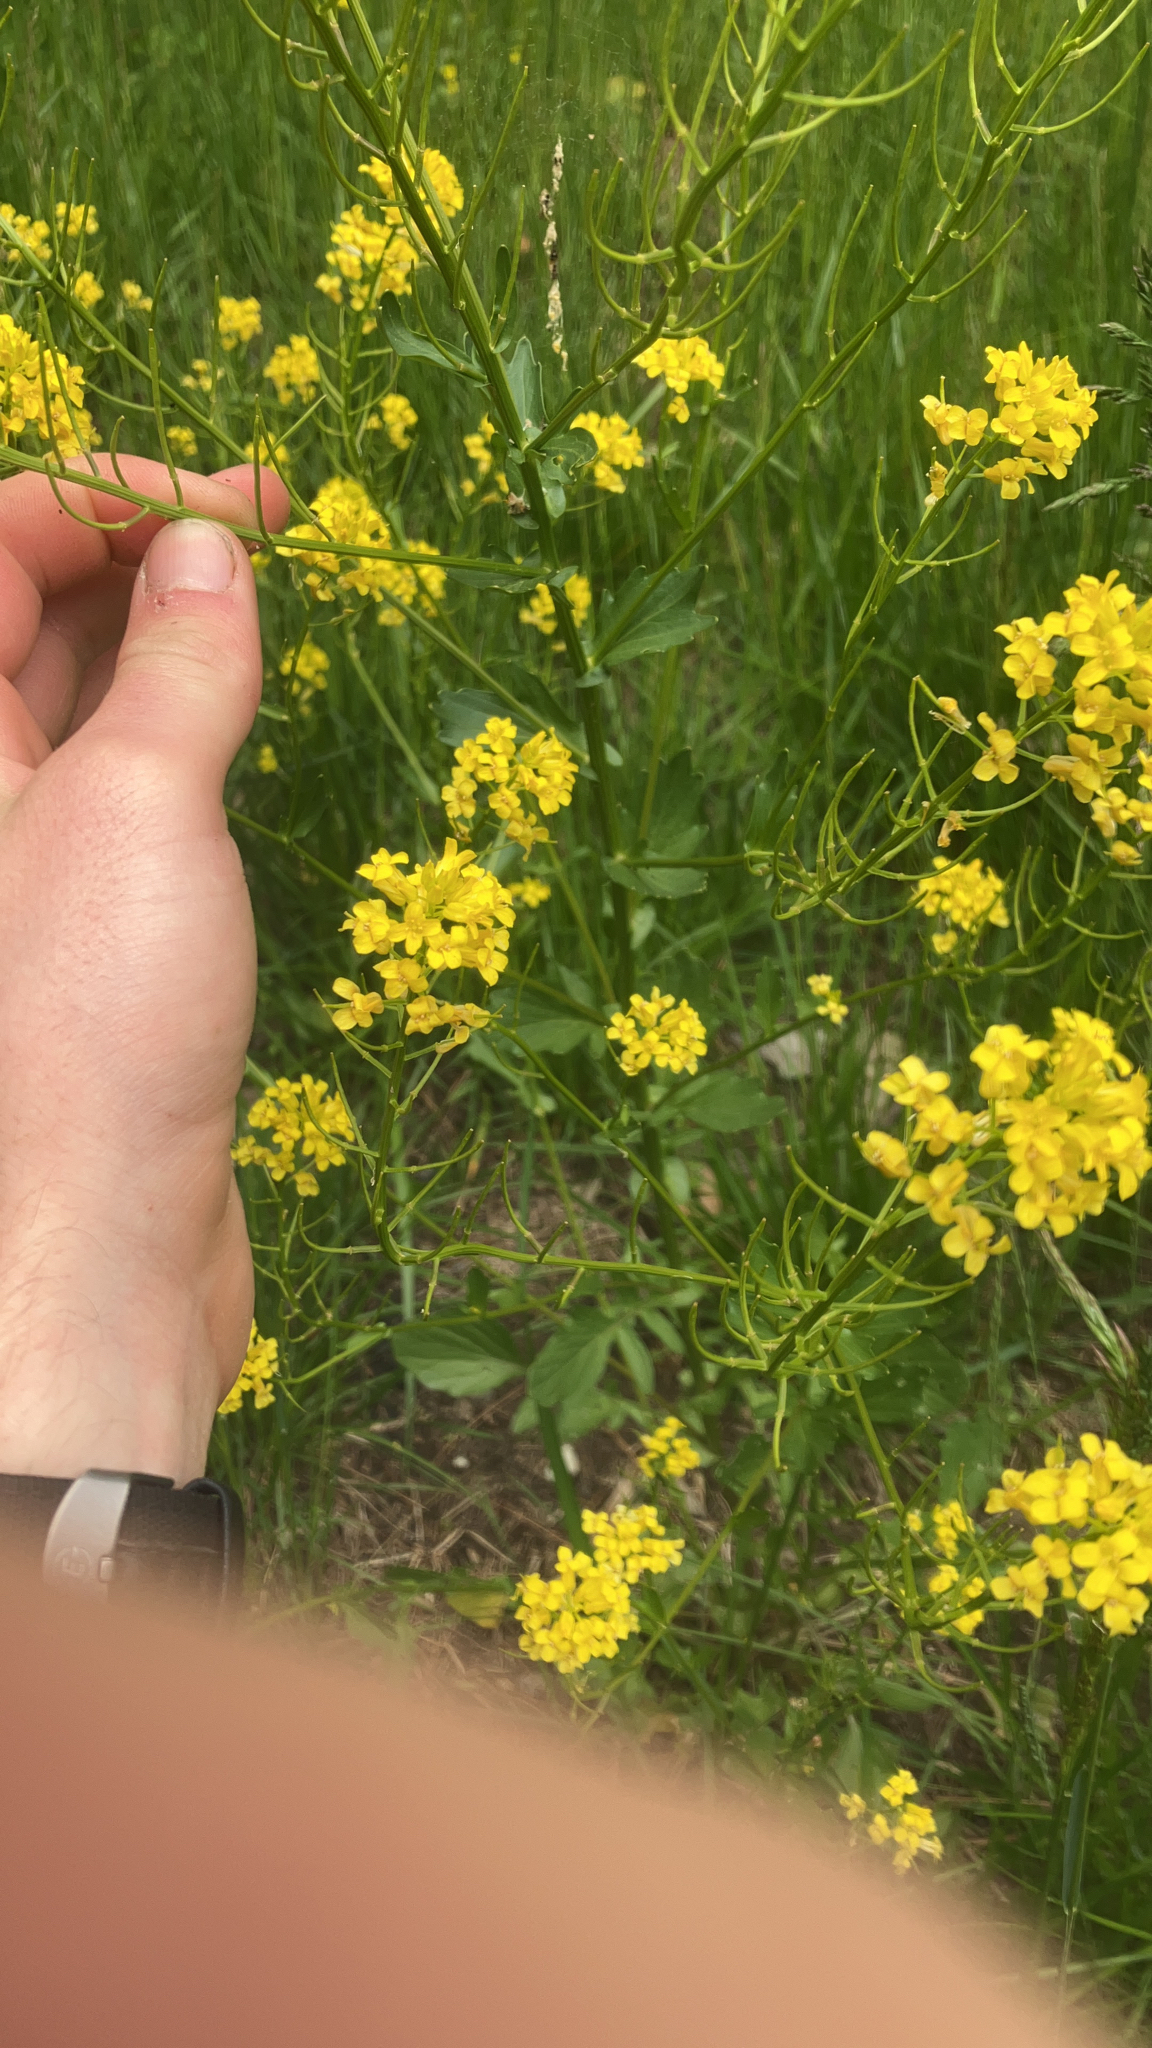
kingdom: Plantae
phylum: Tracheophyta
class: Magnoliopsida
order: Brassicales
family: Brassicaceae
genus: Barbarea
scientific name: Barbarea vulgaris
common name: Cressy-greens
